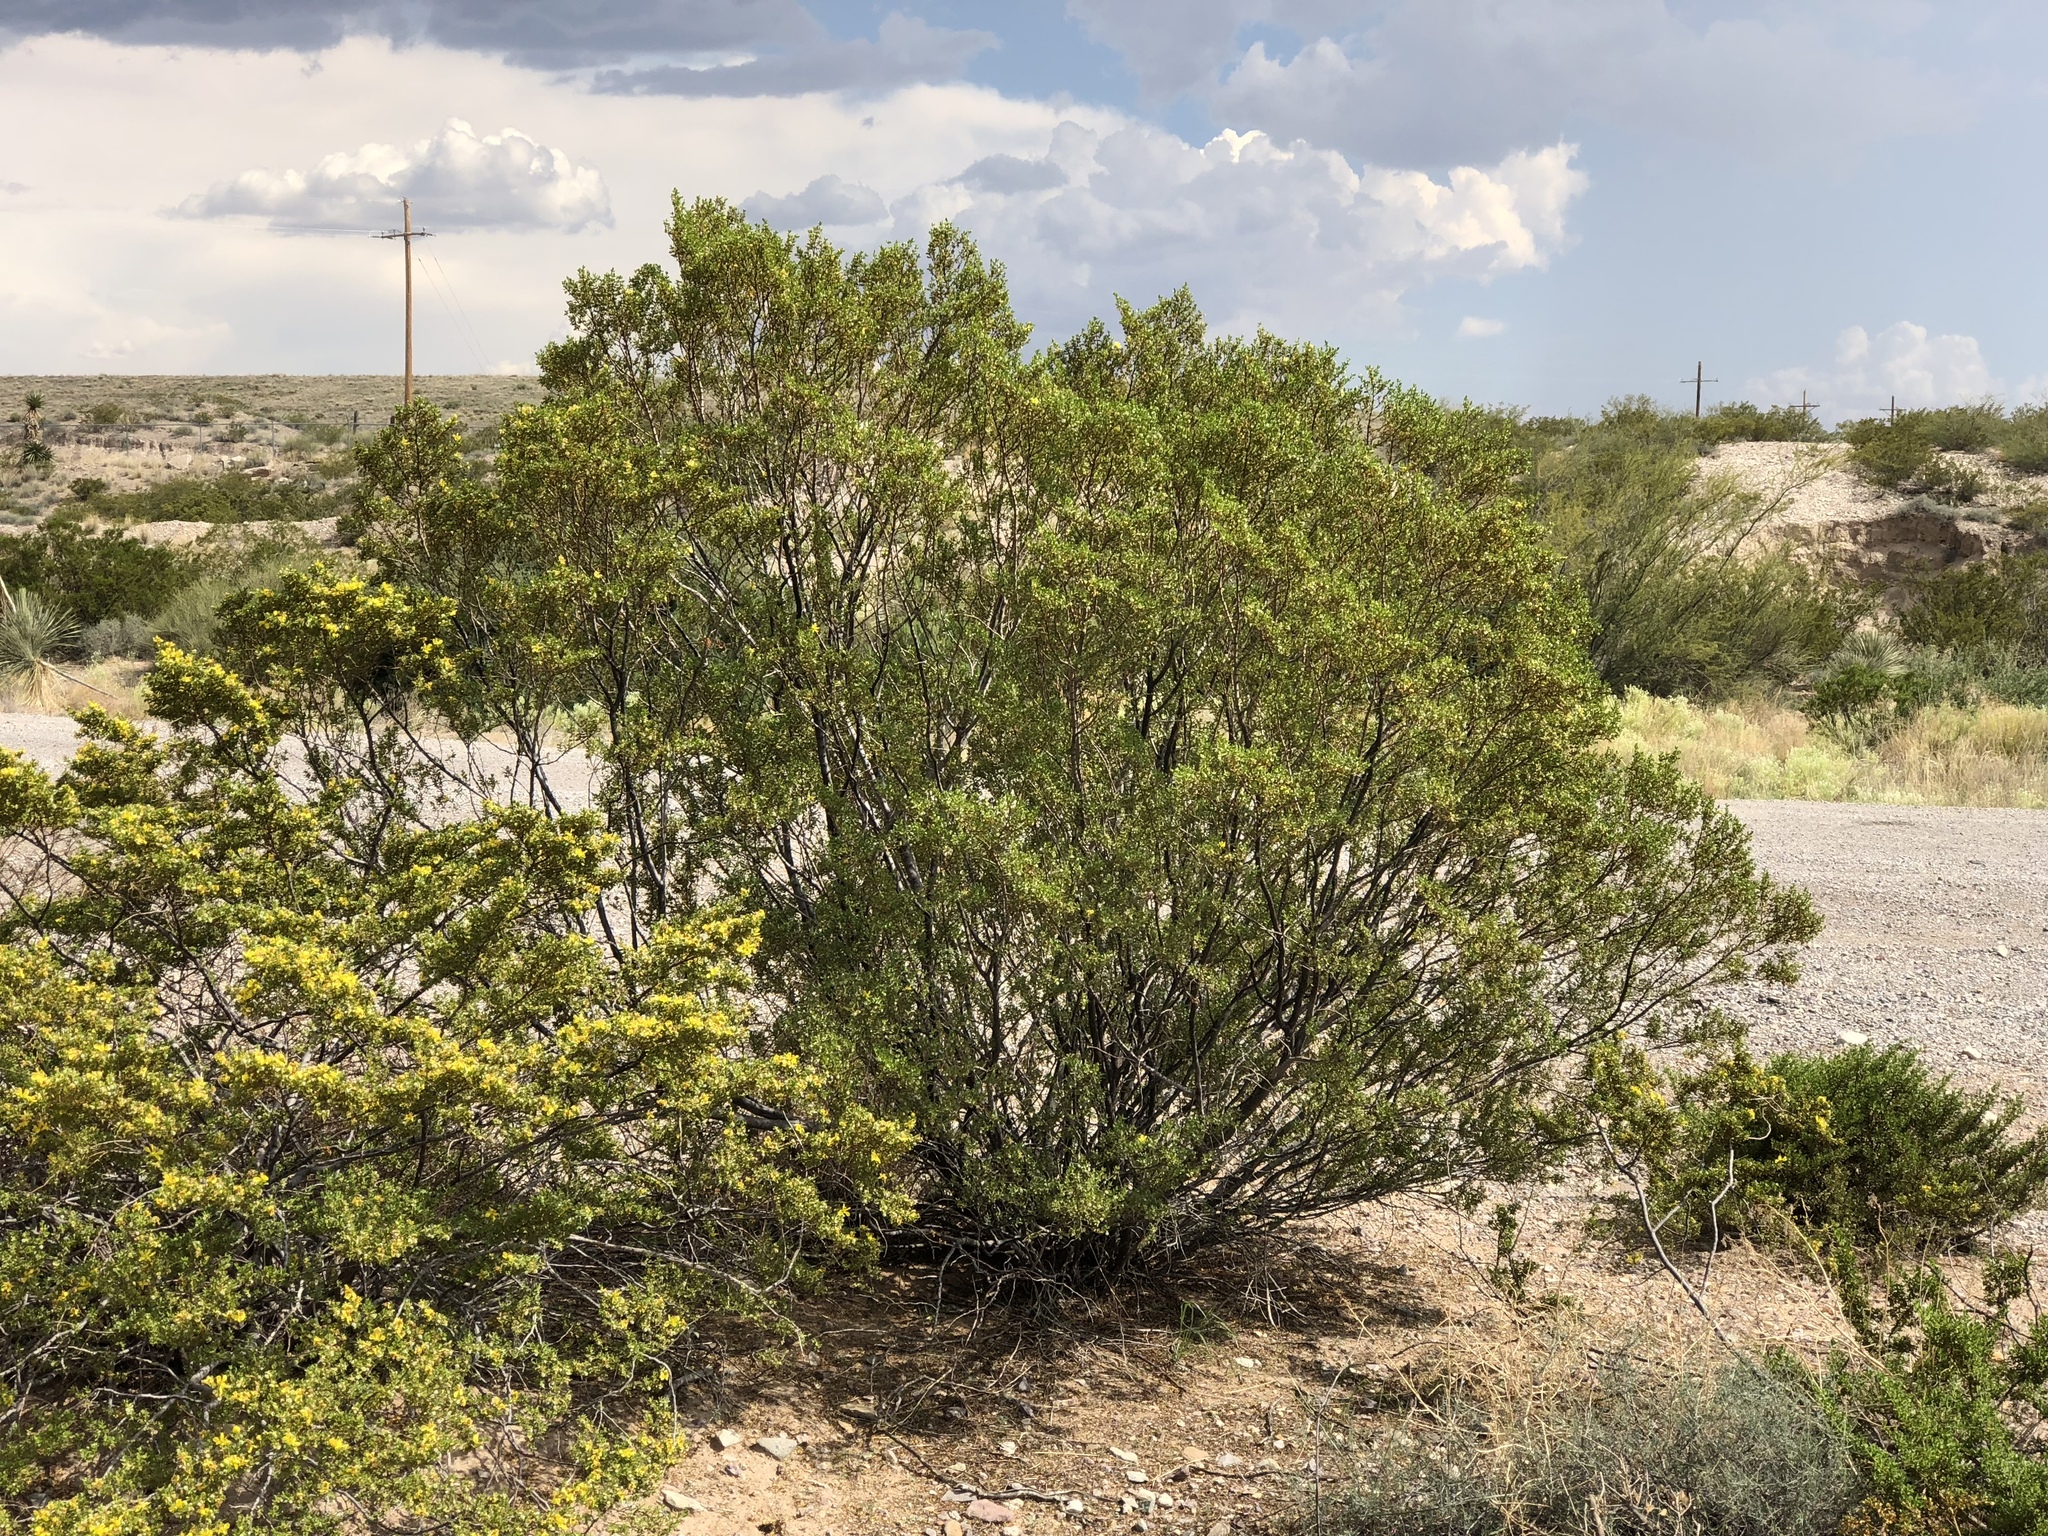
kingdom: Plantae
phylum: Tracheophyta
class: Magnoliopsida
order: Zygophyllales
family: Zygophyllaceae
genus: Larrea
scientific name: Larrea tridentata
